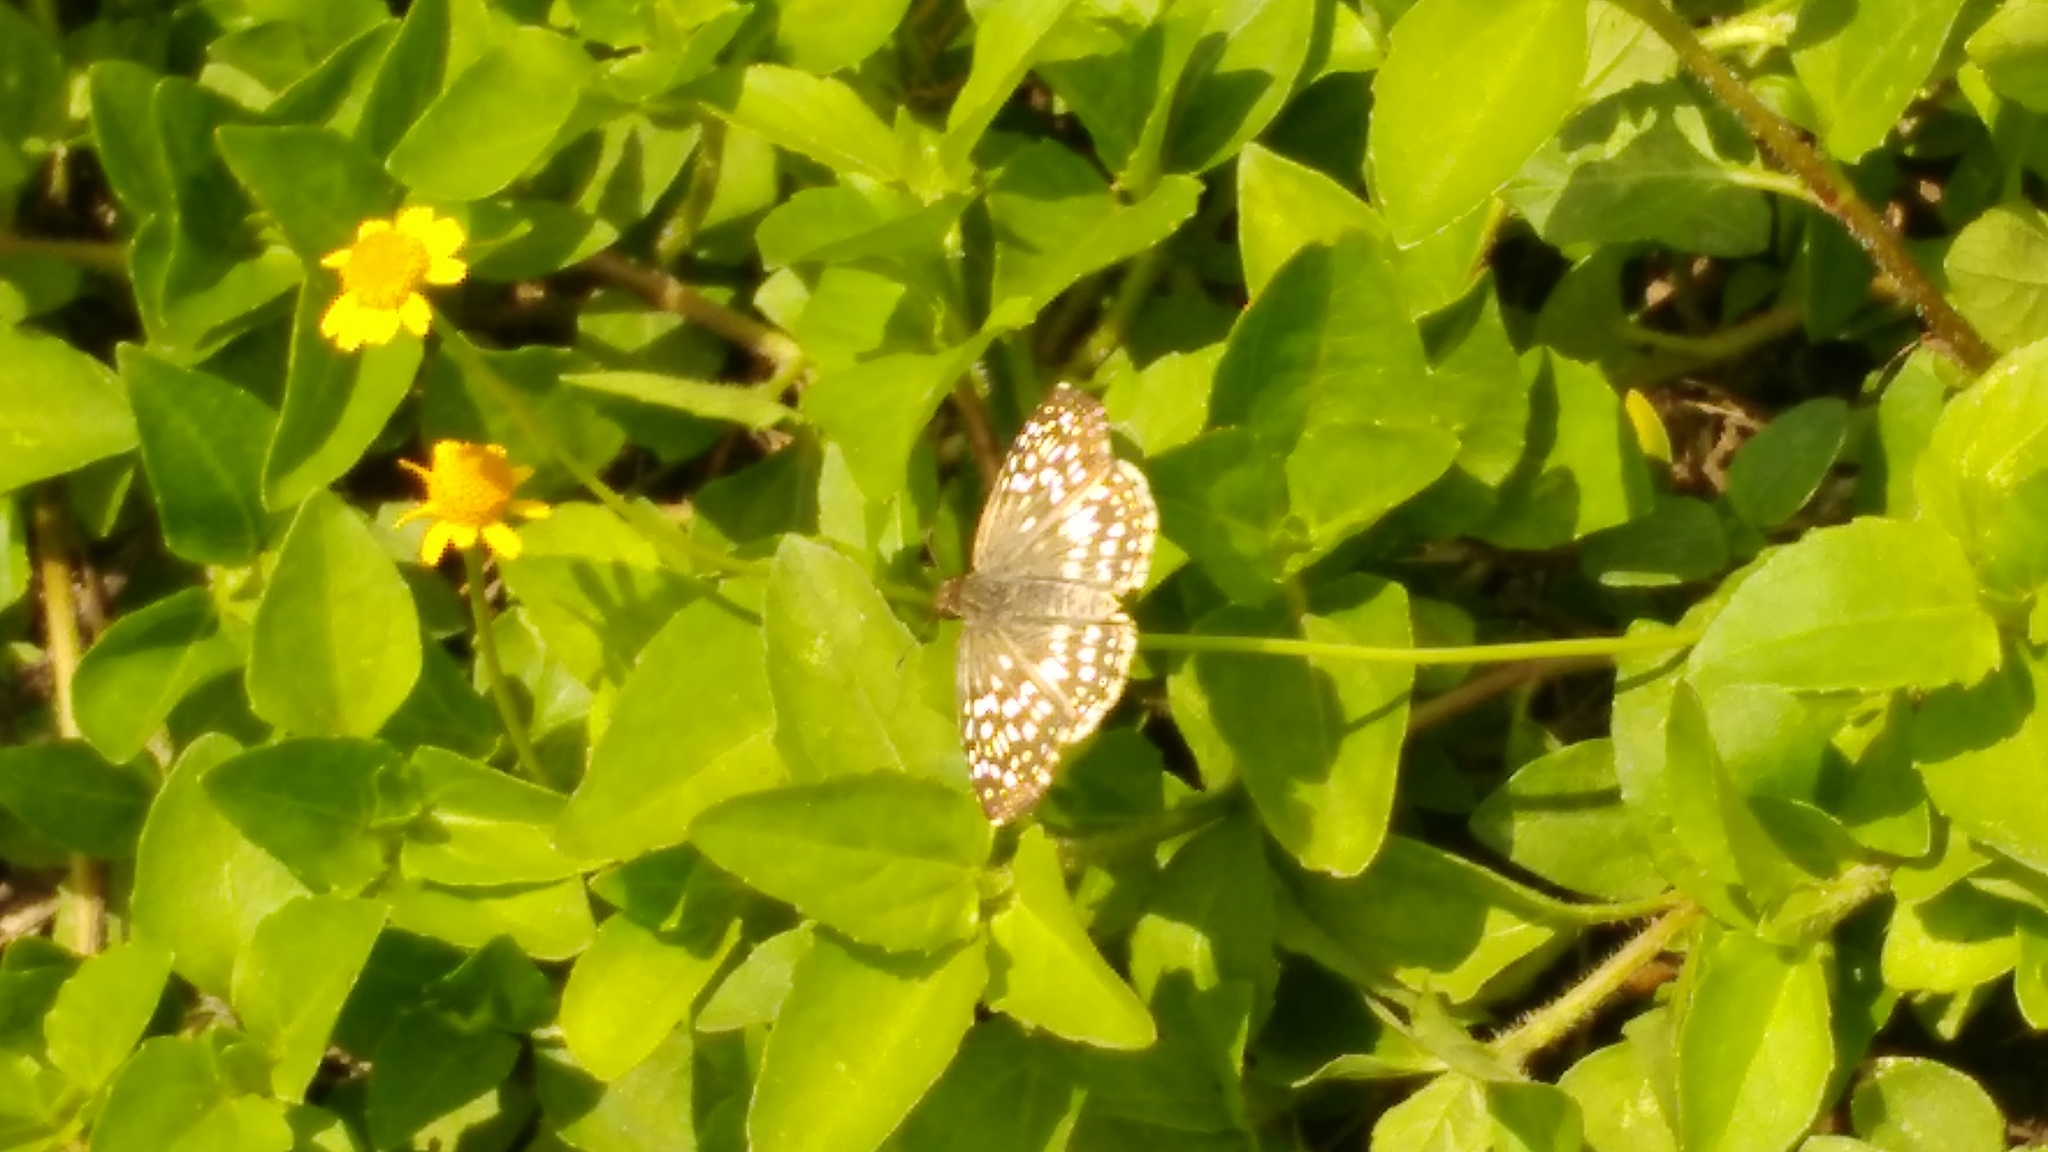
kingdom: Animalia
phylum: Arthropoda
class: Insecta
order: Lepidoptera
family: Hesperiidae
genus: Pyrgus
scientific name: Pyrgus oileus
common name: Tropical checkered-skipper
